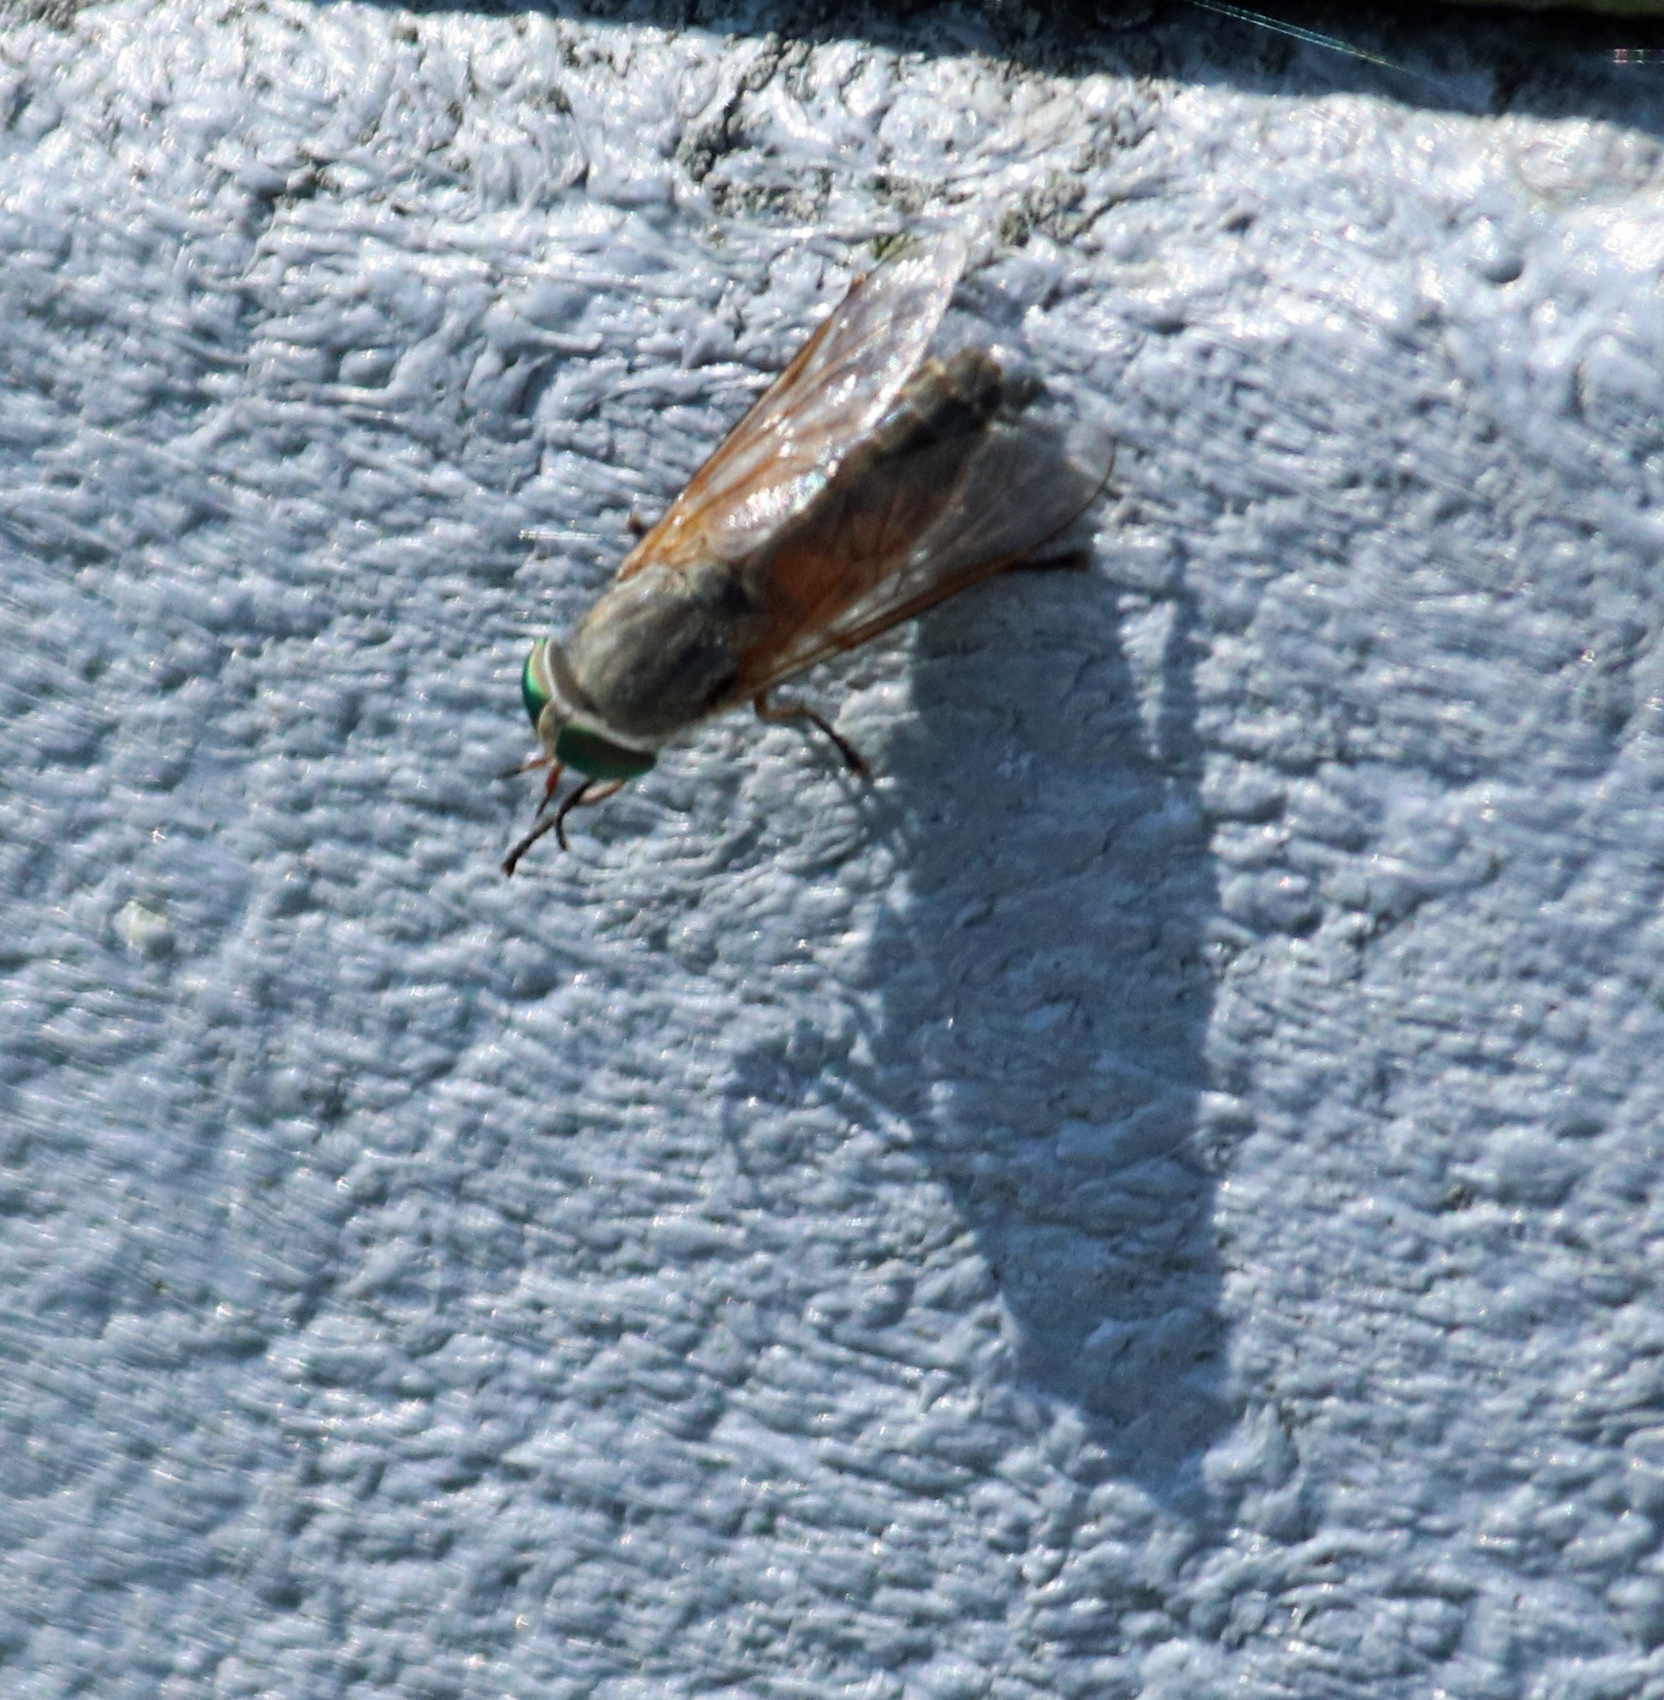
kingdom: Animalia
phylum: Arthropoda
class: Insecta
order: Diptera
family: Tabanidae
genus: Tabanus
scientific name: Tabanus
